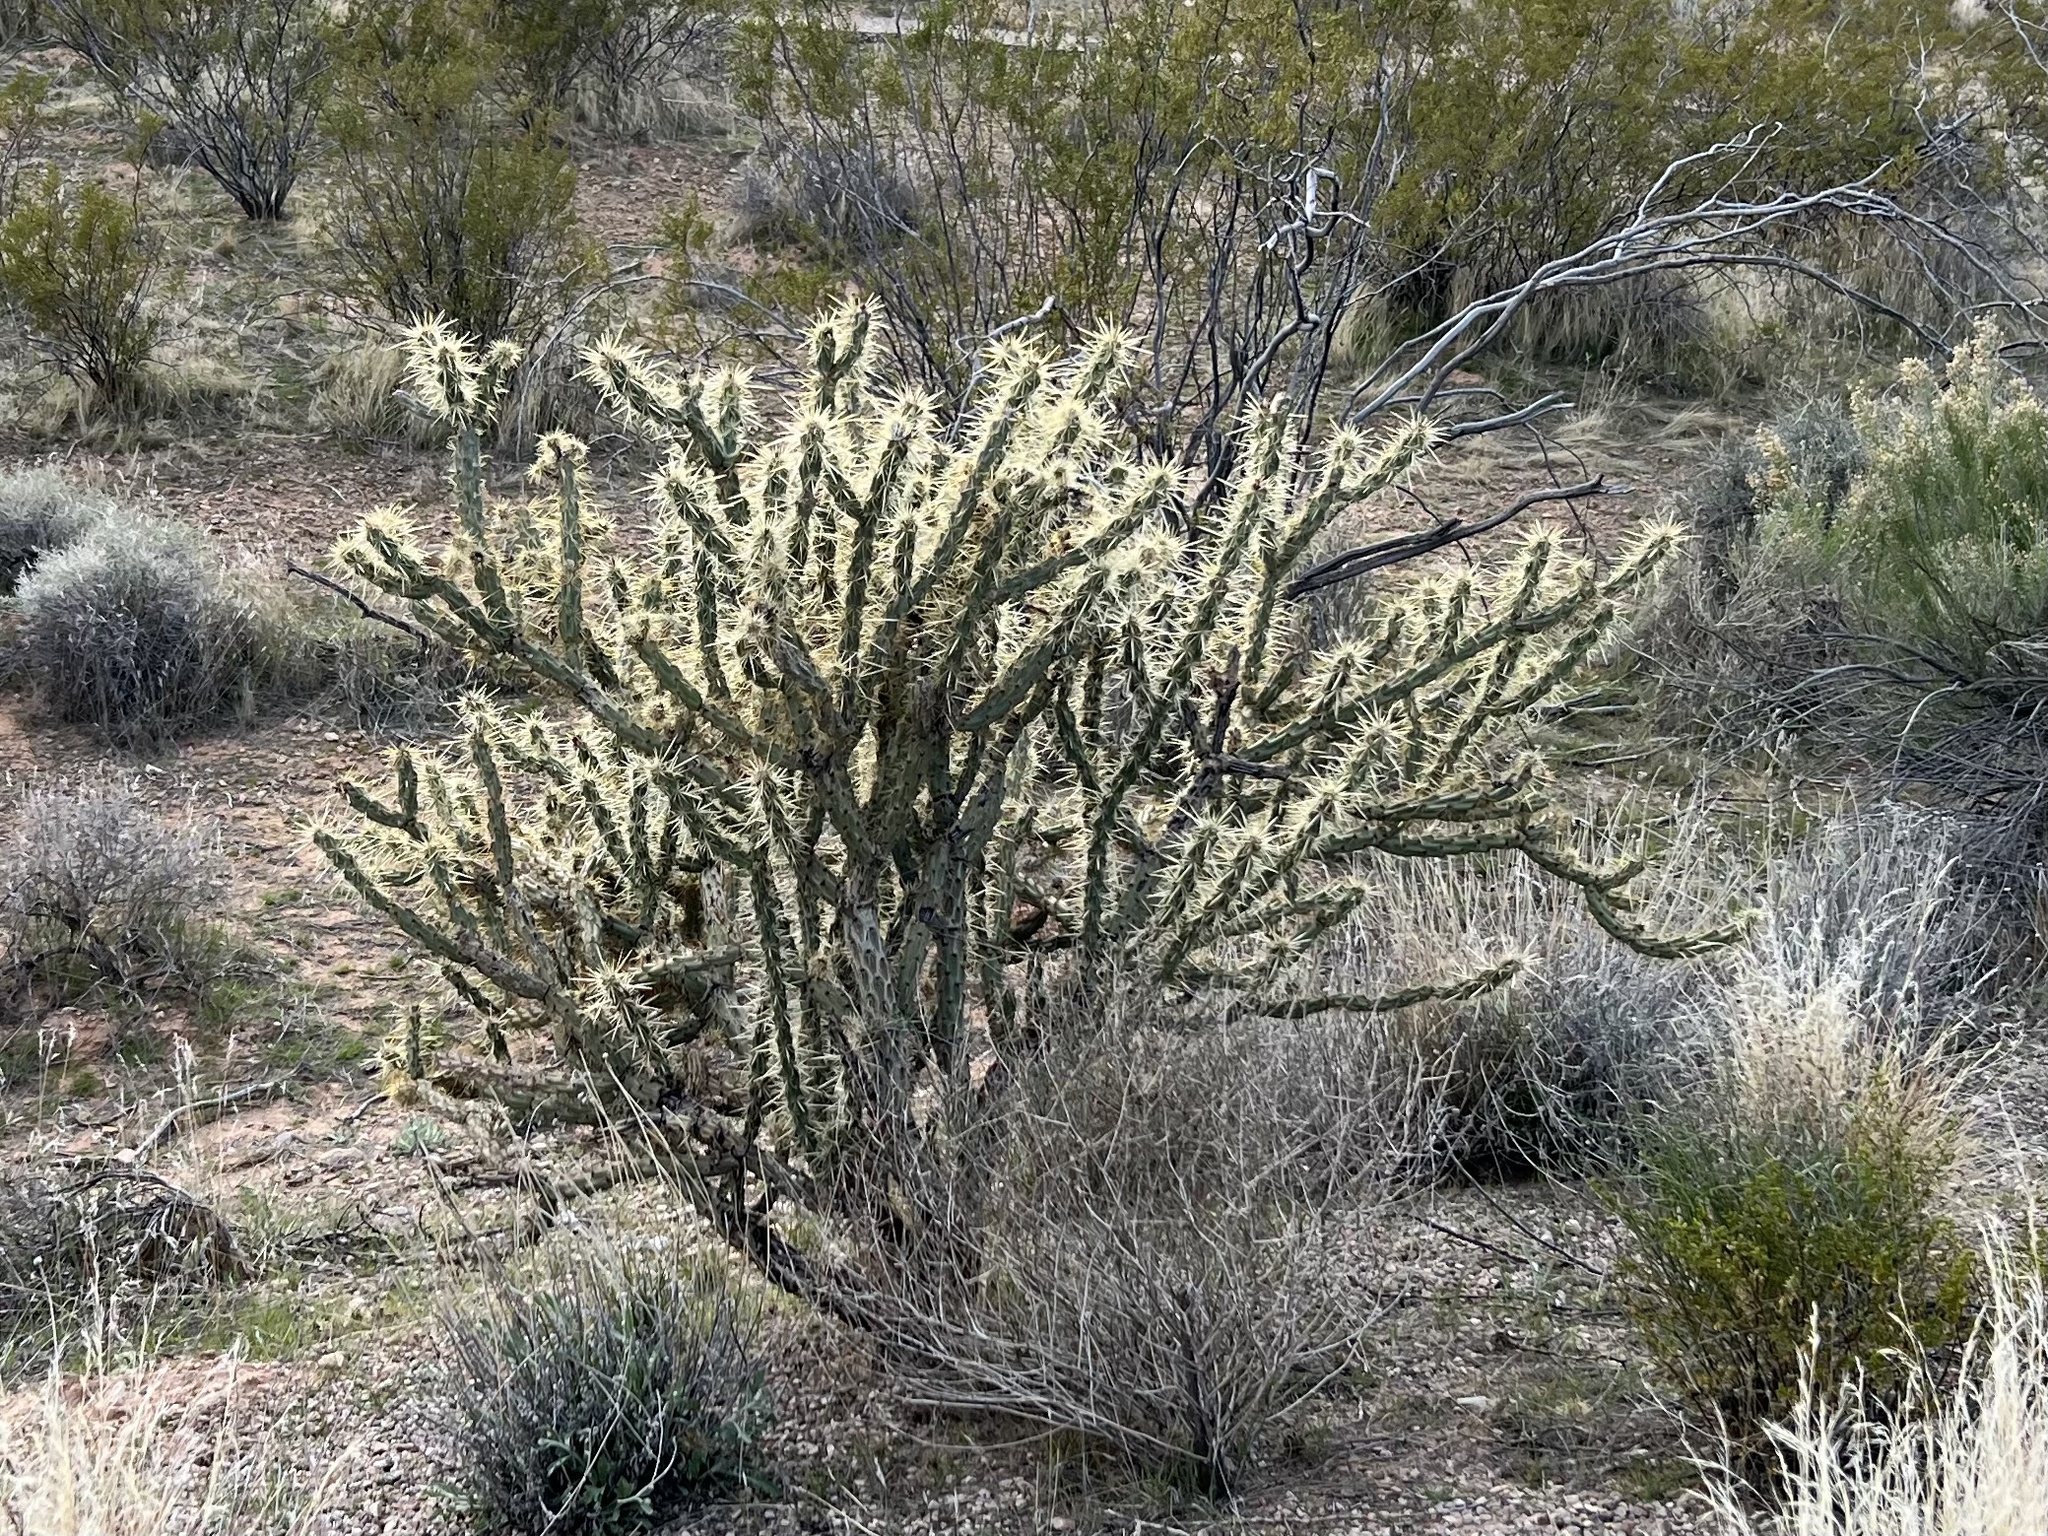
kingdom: Plantae
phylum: Tracheophyta
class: Magnoliopsida
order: Caryophyllales
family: Cactaceae
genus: Cylindropuntia
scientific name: Cylindropuntia acanthocarpa
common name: Buckhorn cholla
